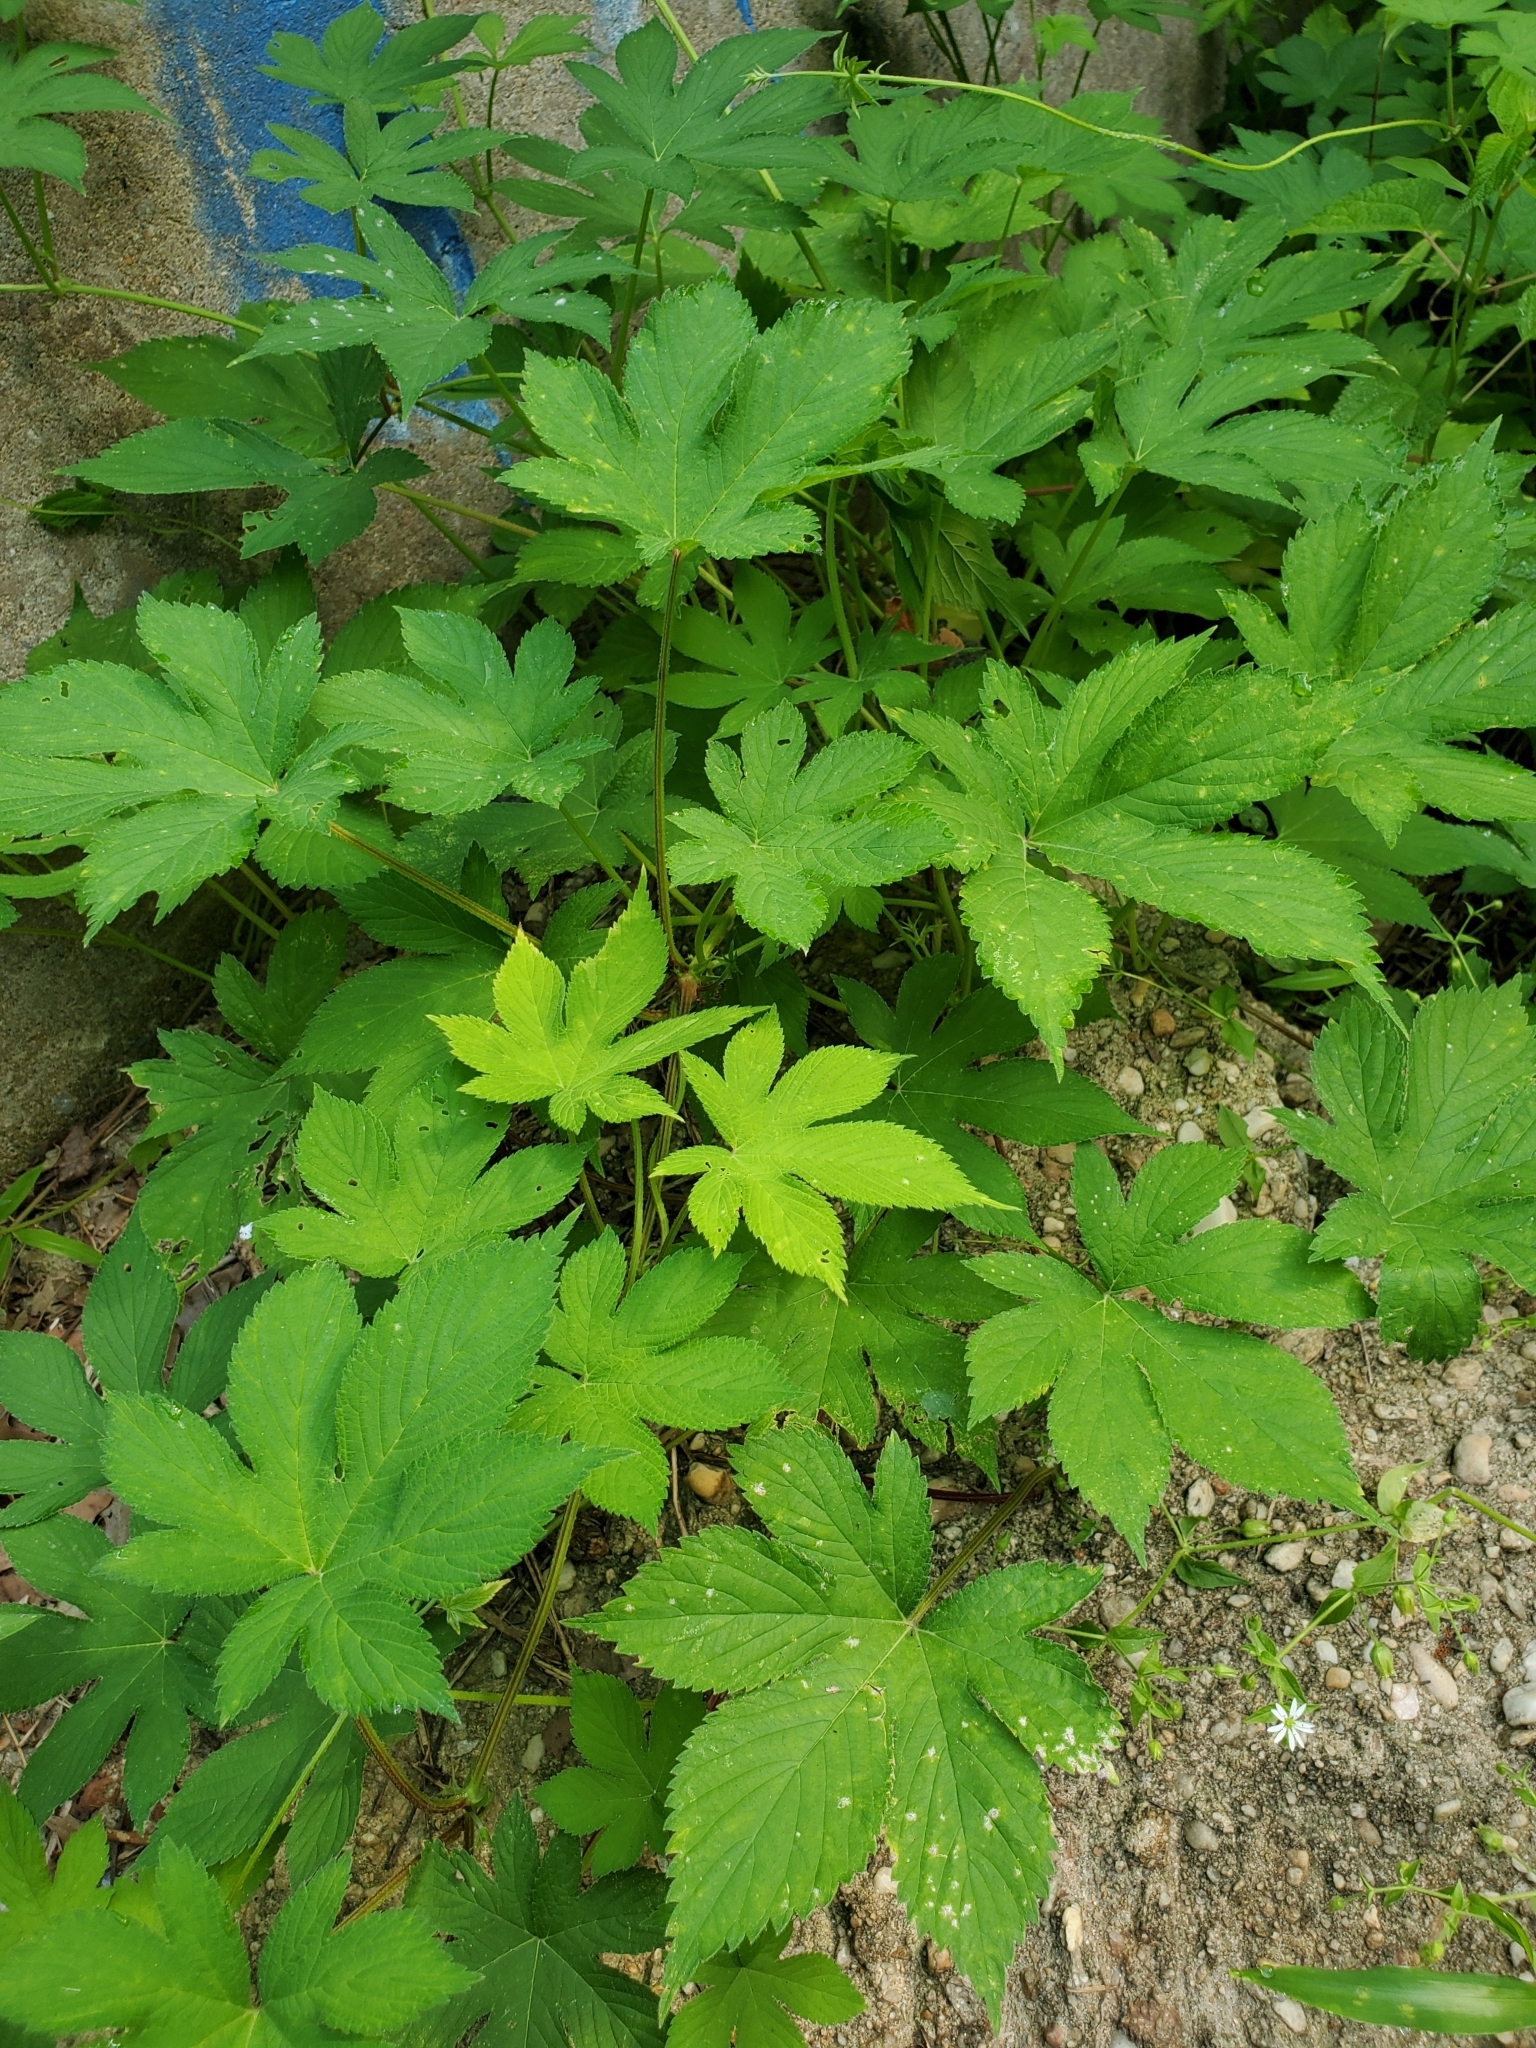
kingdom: Plantae
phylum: Tracheophyta
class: Magnoliopsida
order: Rosales
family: Cannabaceae
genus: Humulus
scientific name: Humulus scandens
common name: Japanese hop
